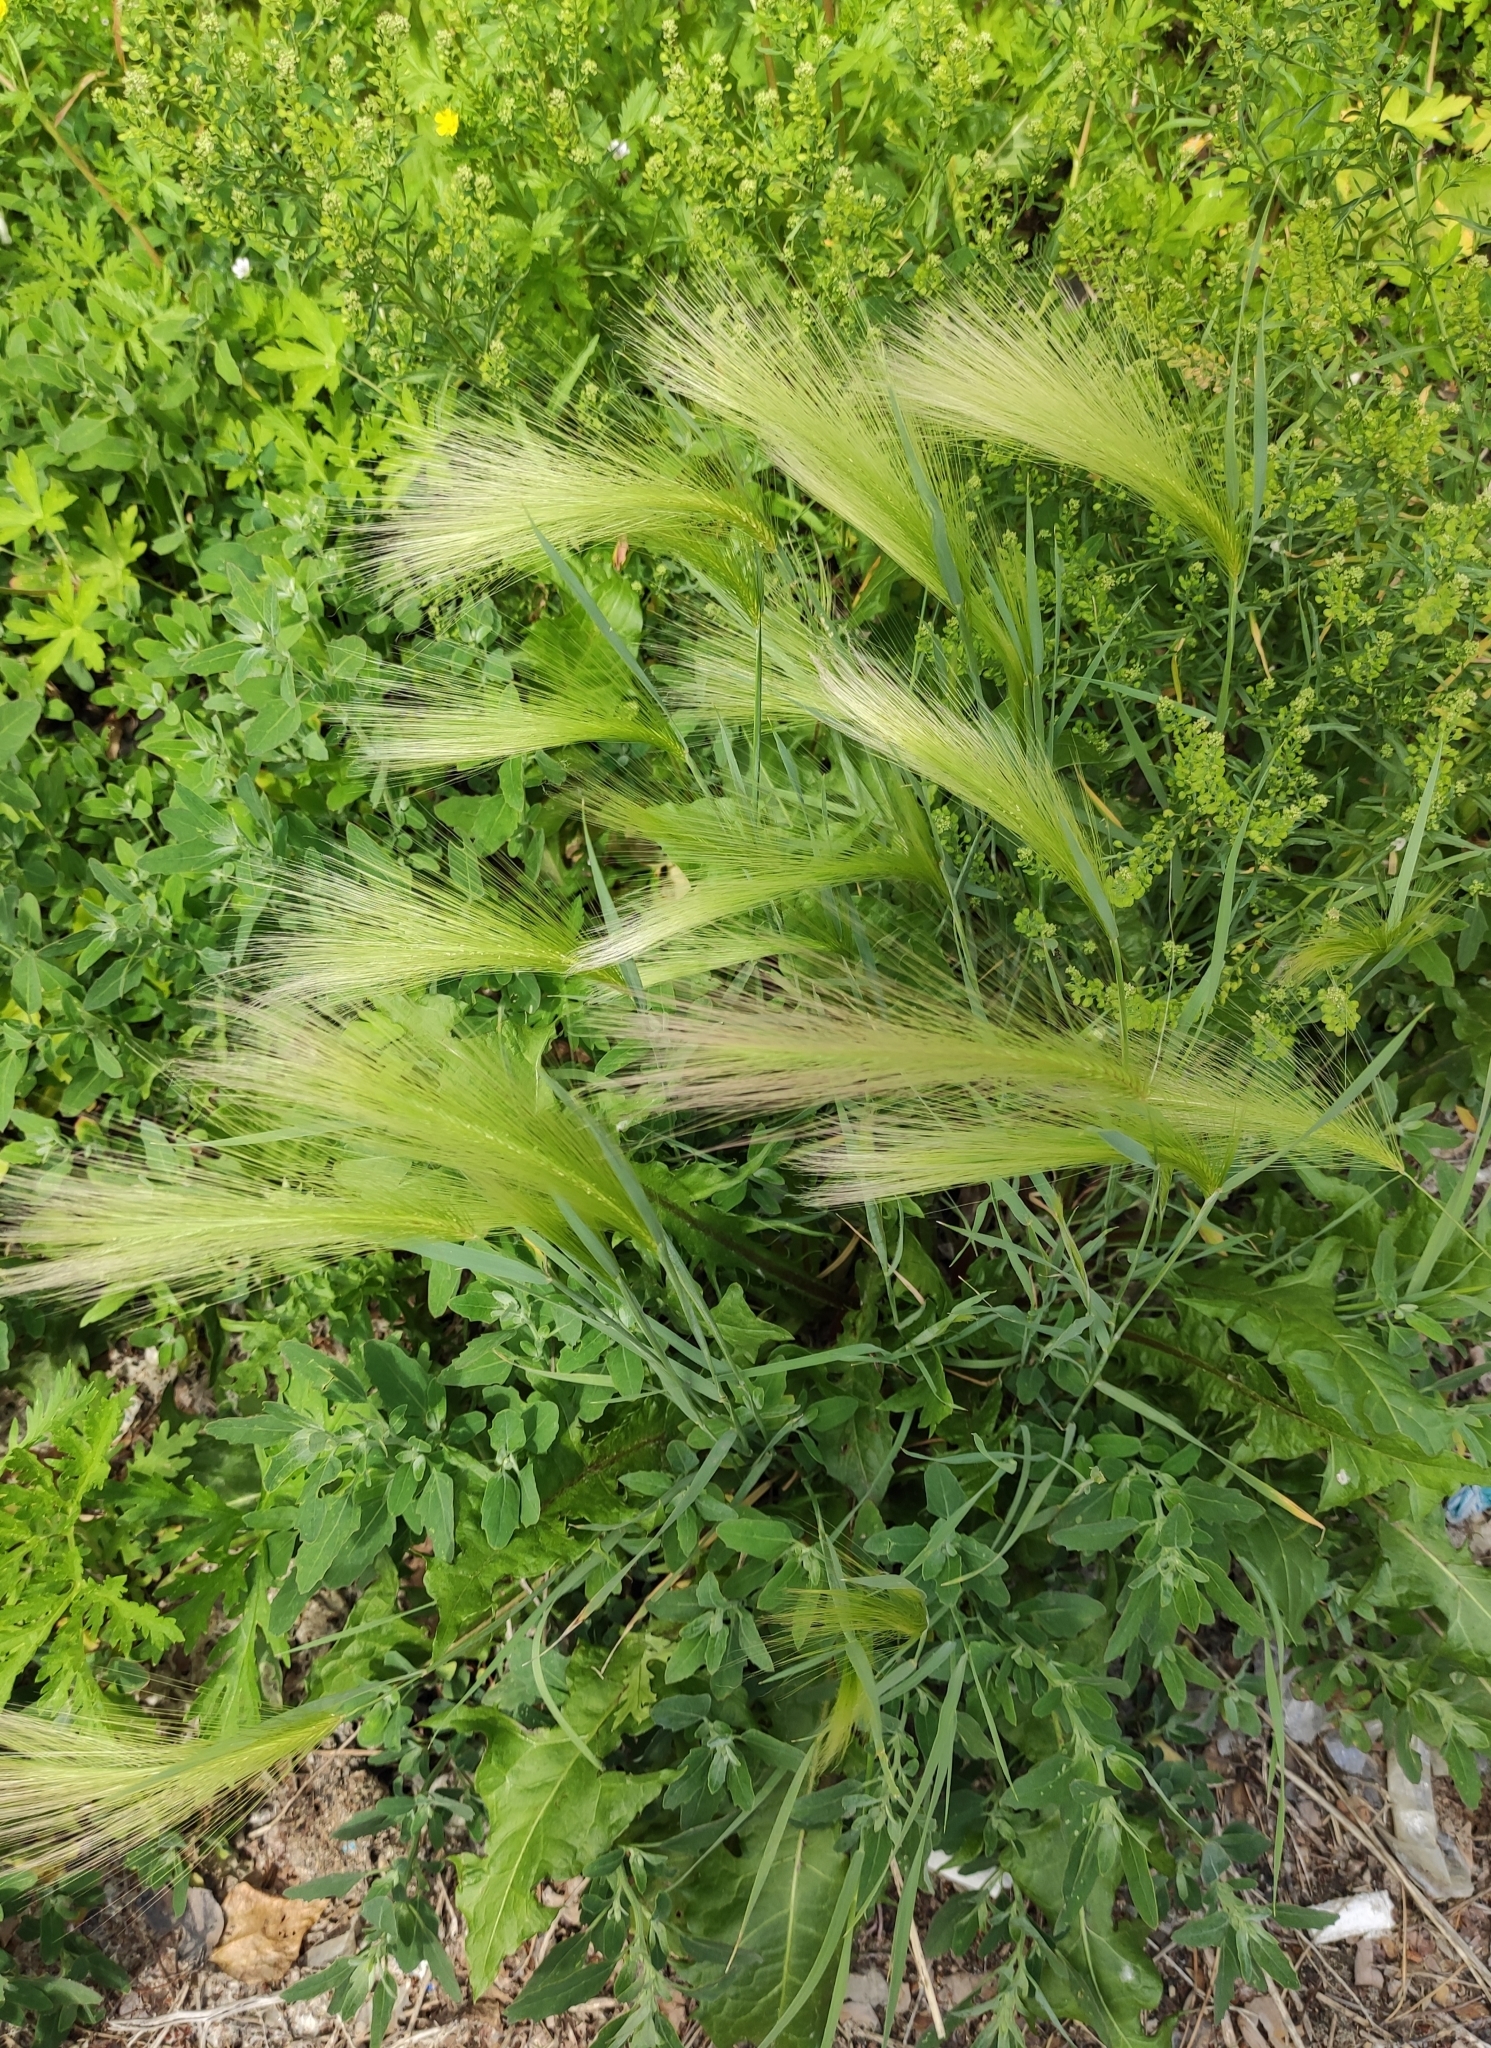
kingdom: Plantae
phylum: Tracheophyta
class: Liliopsida
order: Poales
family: Poaceae
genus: Hordeum
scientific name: Hordeum jubatum
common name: Foxtail barley
